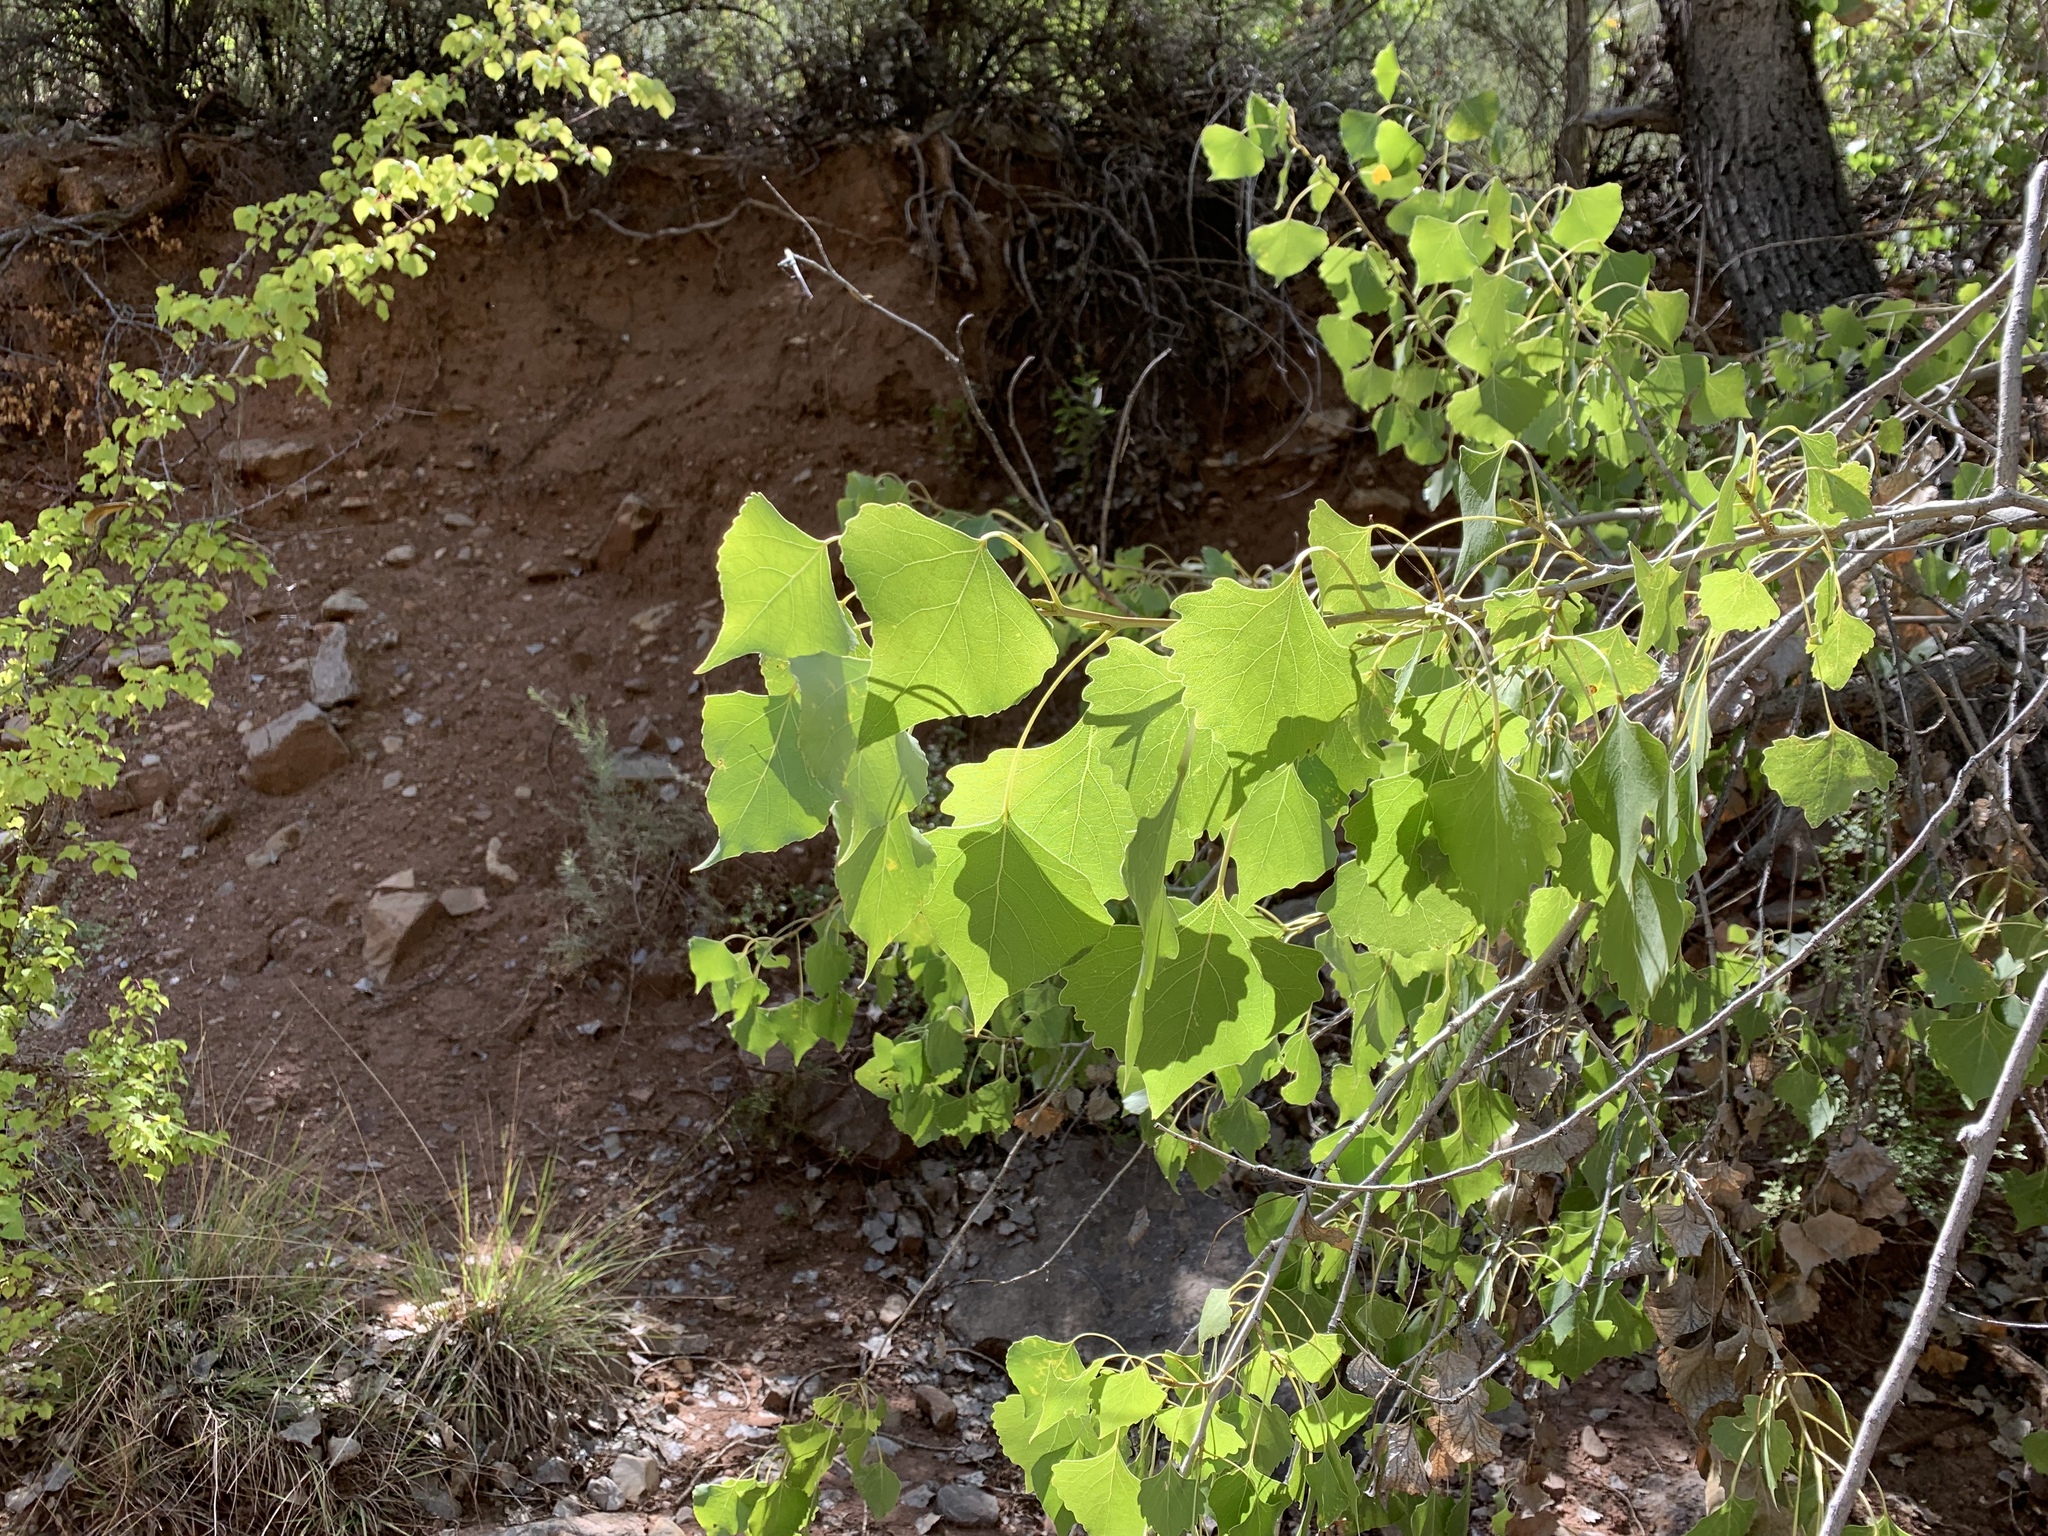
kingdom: Plantae
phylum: Tracheophyta
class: Magnoliopsida
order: Malpighiales
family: Salicaceae
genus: Populus
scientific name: Populus fremontii
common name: Fremont's cottonwood
